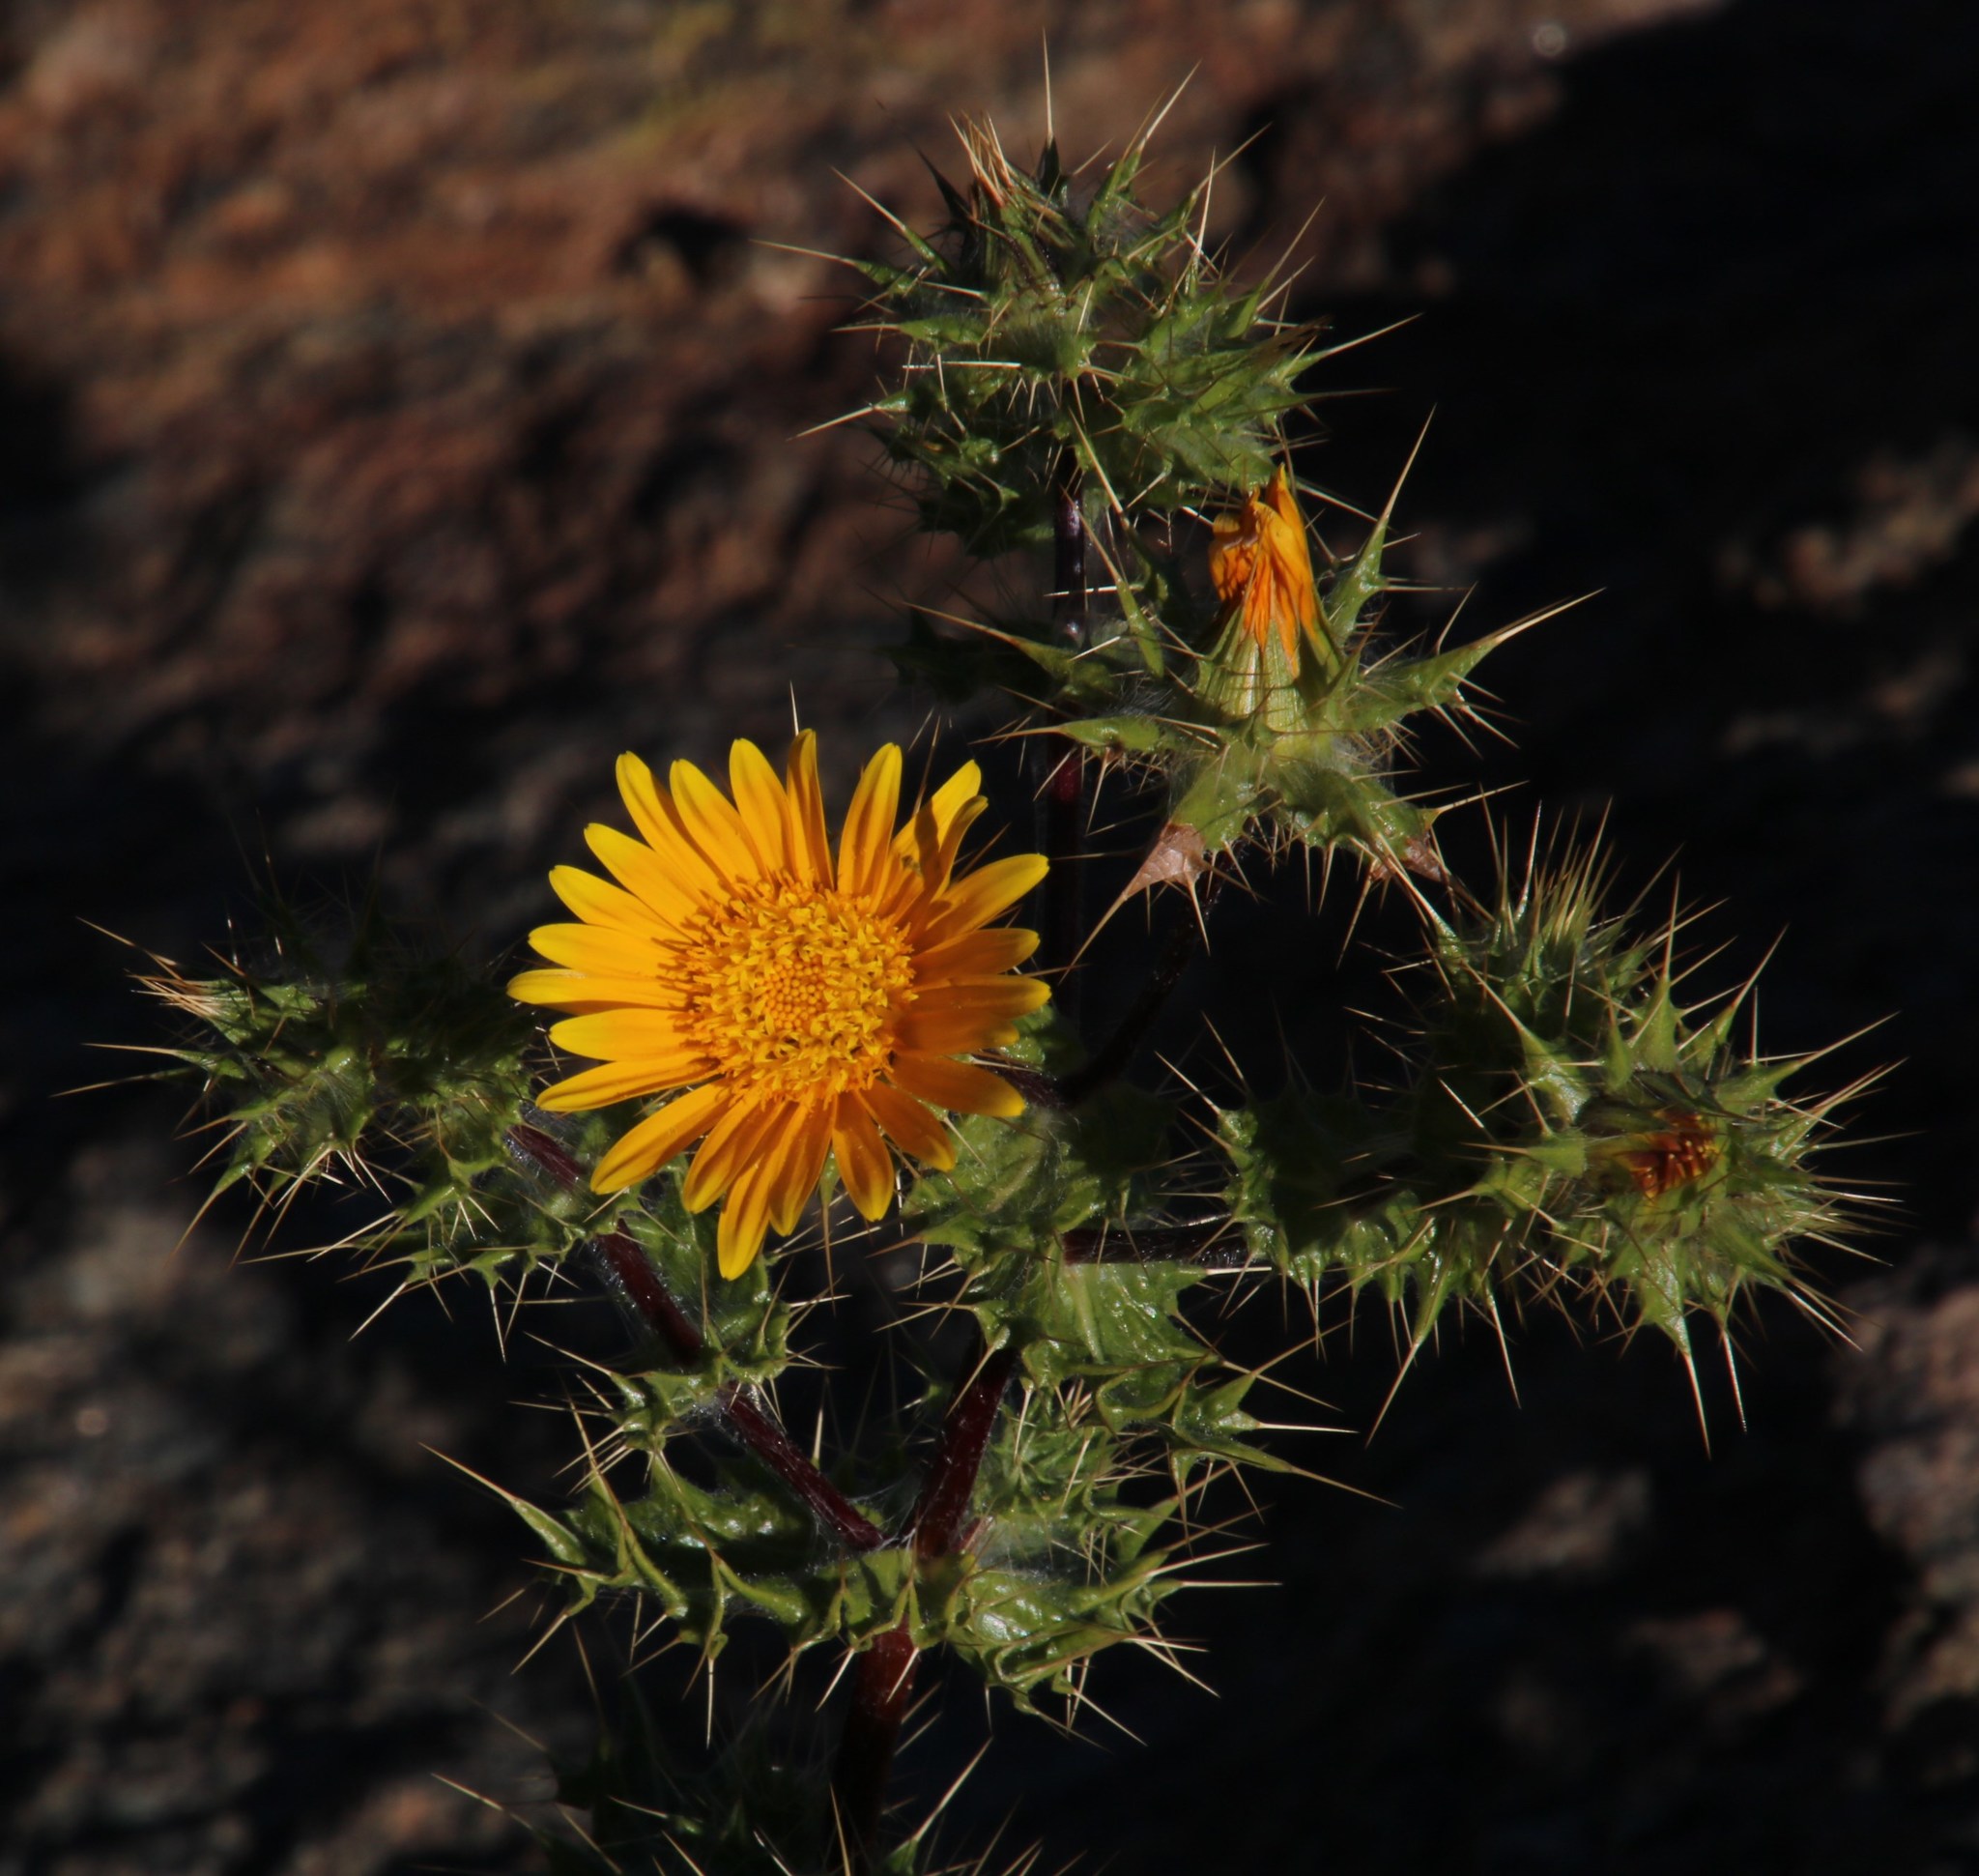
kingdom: Plantae
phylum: Tracheophyta
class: Magnoliopsida
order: Asterales
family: Asteraceae
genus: Berkheya
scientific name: Berkheya spinosissima
